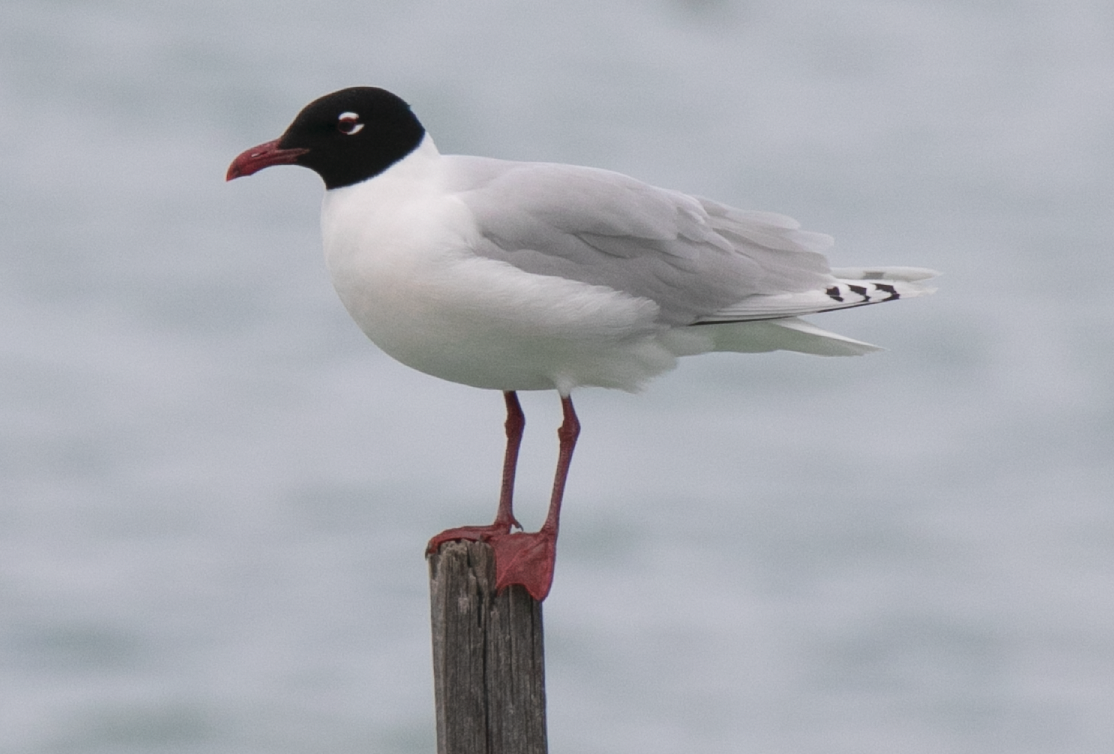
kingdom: Animalia
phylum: Chordata
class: Aves
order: Charadriiformes
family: Laridae
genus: Ichthyaetus
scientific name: Ichthyaetus melanocephalus
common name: Mediterranean gull
